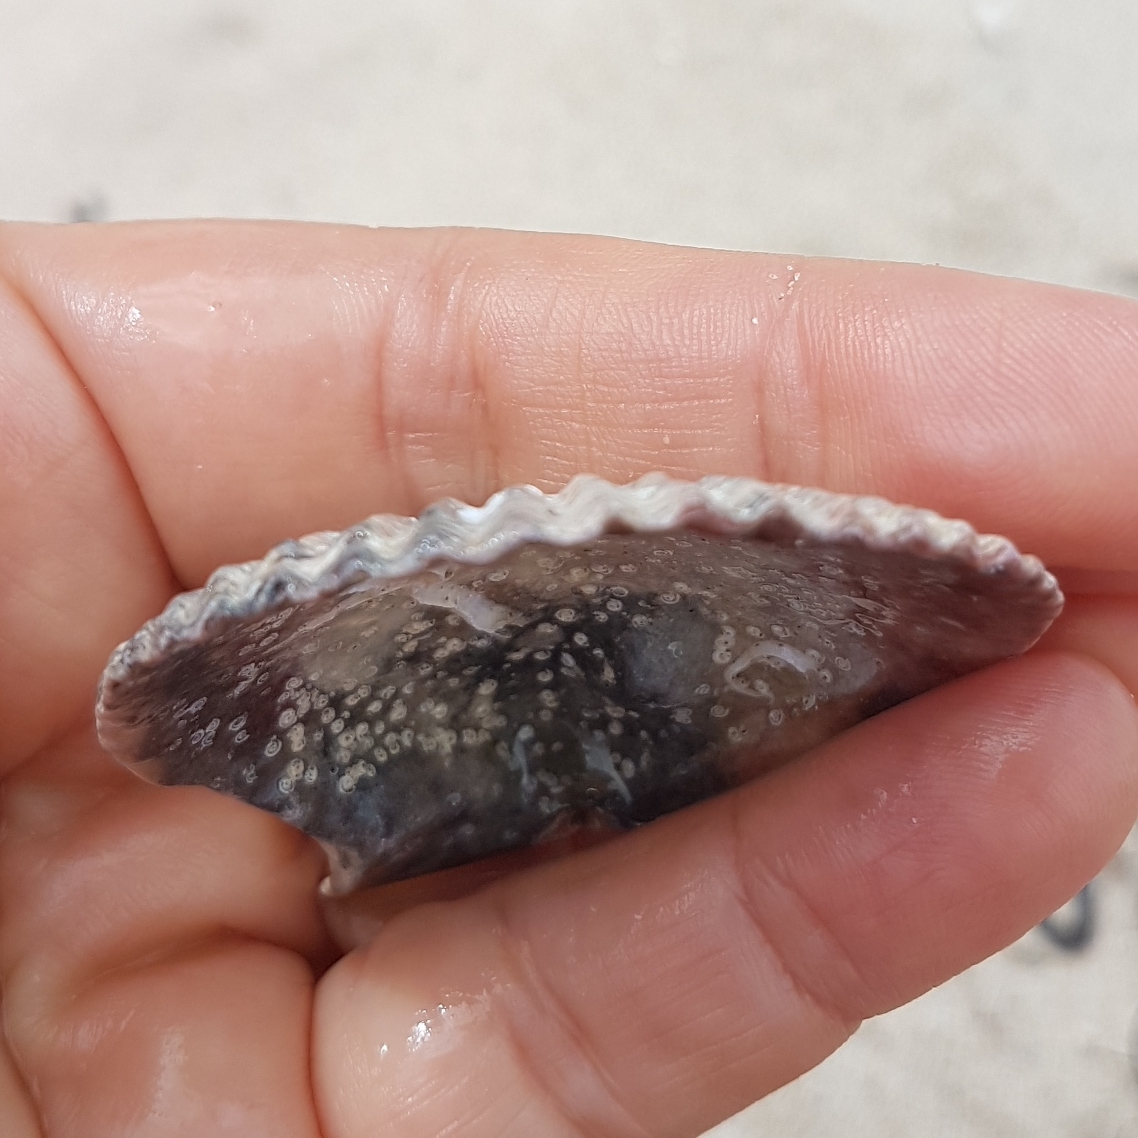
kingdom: Animalia
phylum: Mollusca
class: Bivalvia
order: Pectinida
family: Pectinidae
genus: Mimachlamys
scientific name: Mimachlamys varia
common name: Variegated scallop
